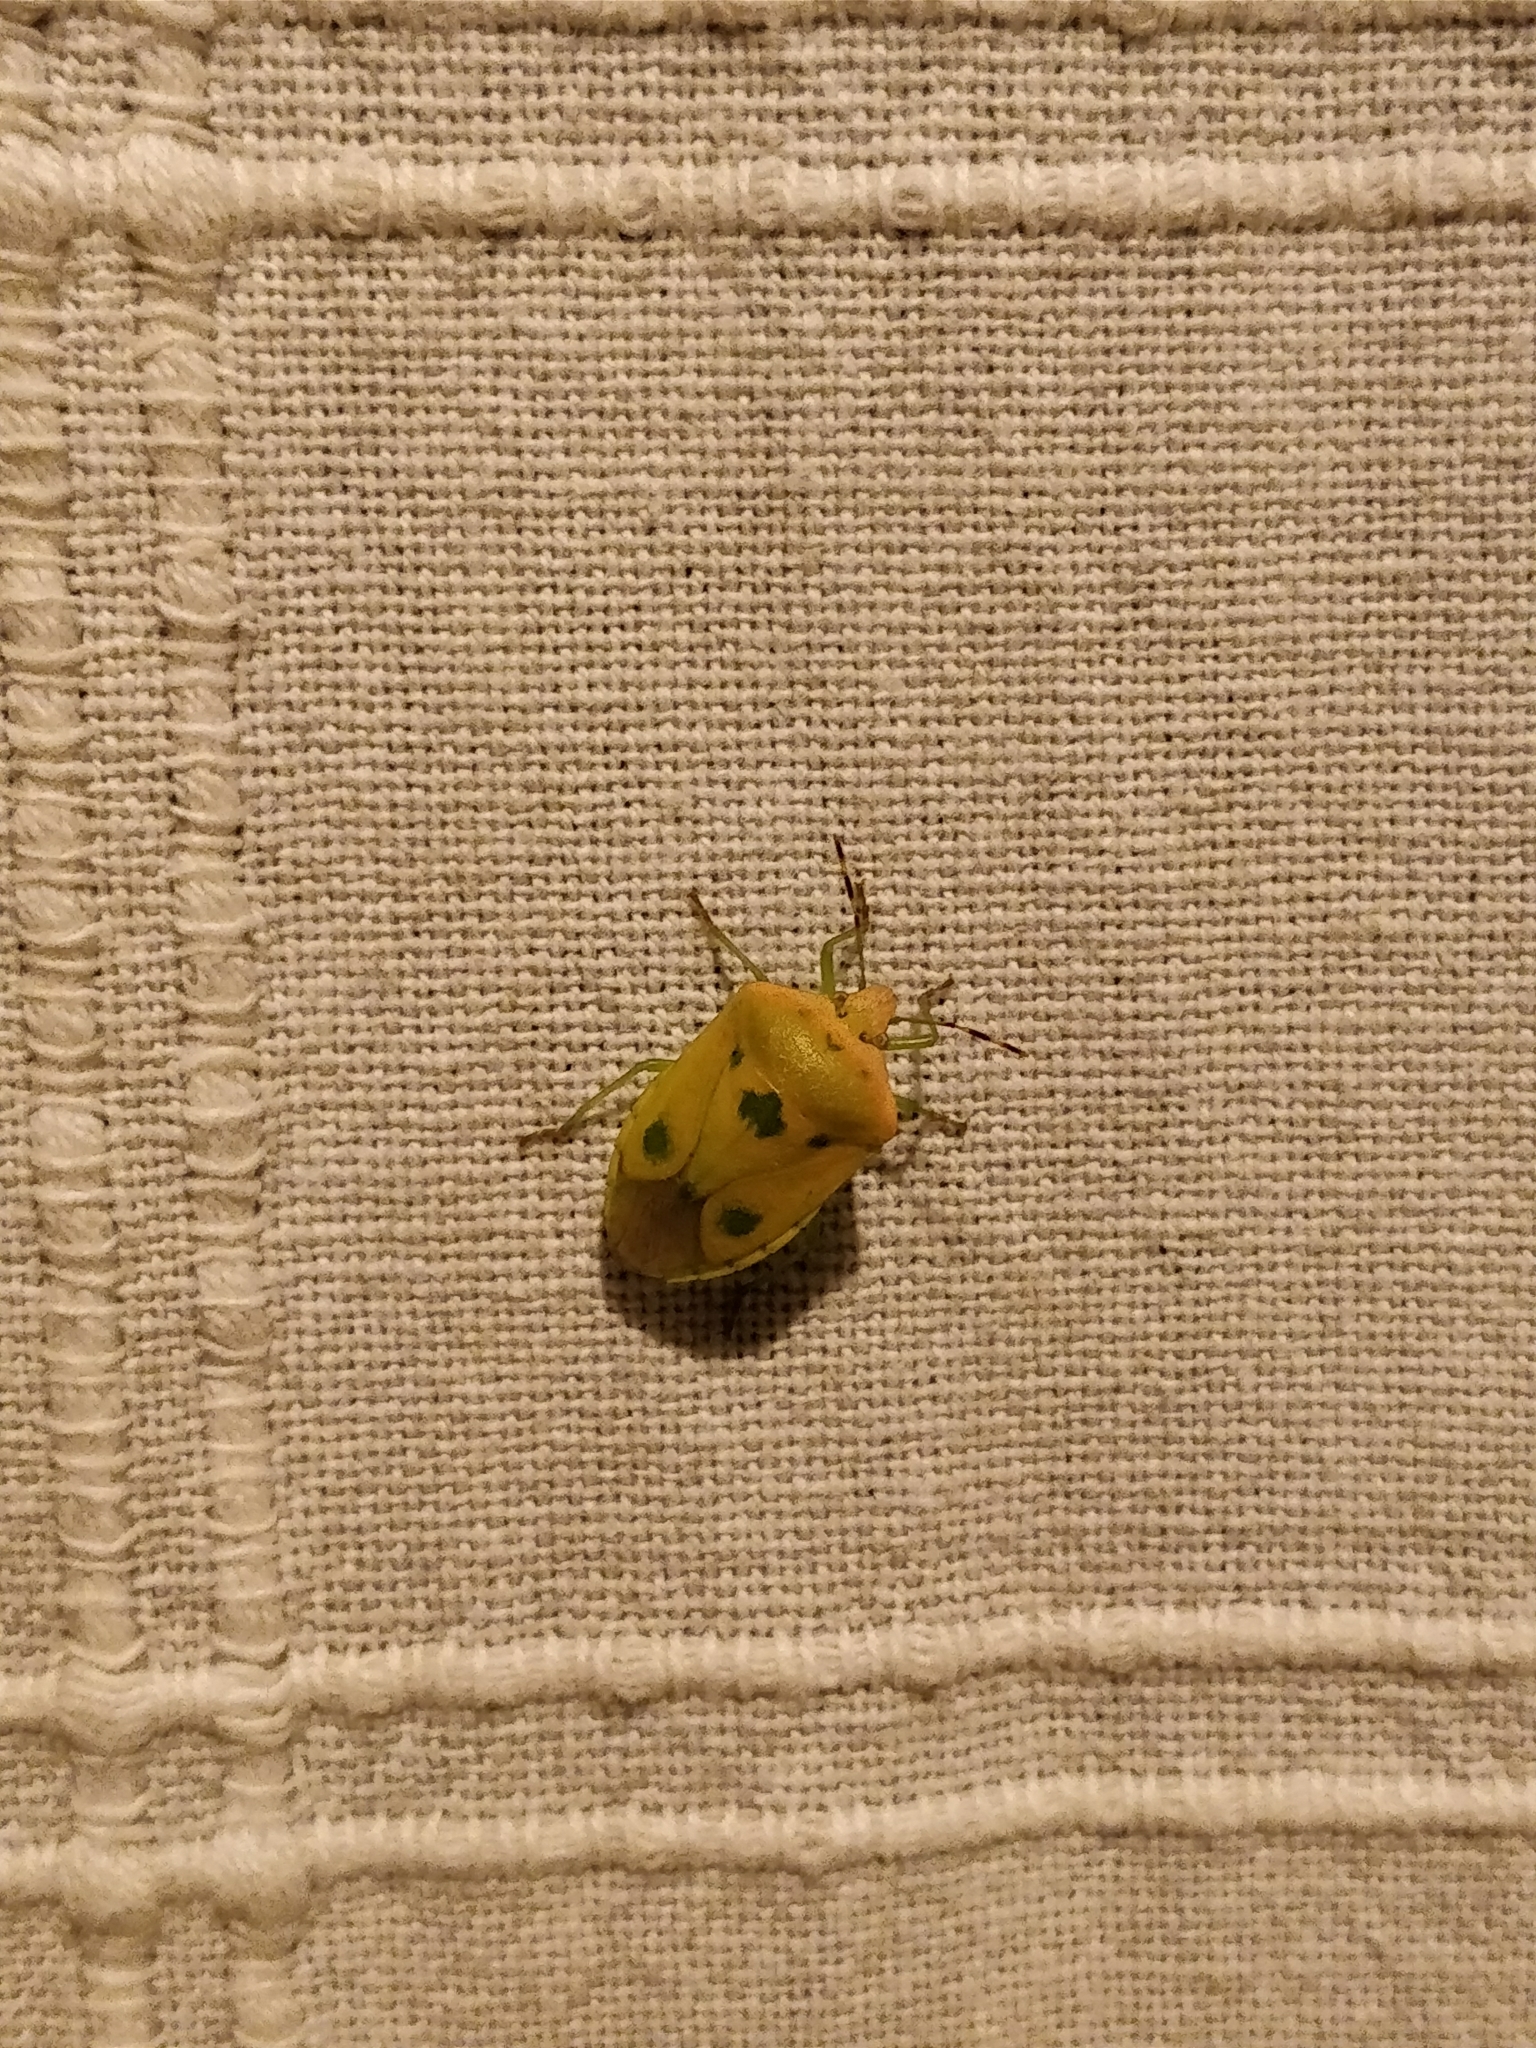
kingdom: Animalia
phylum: Arthropoda
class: Insecta
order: Hemiptera
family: Pentatomidae
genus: Nezara
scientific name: Nezara viridula
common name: Southern green stink bug
